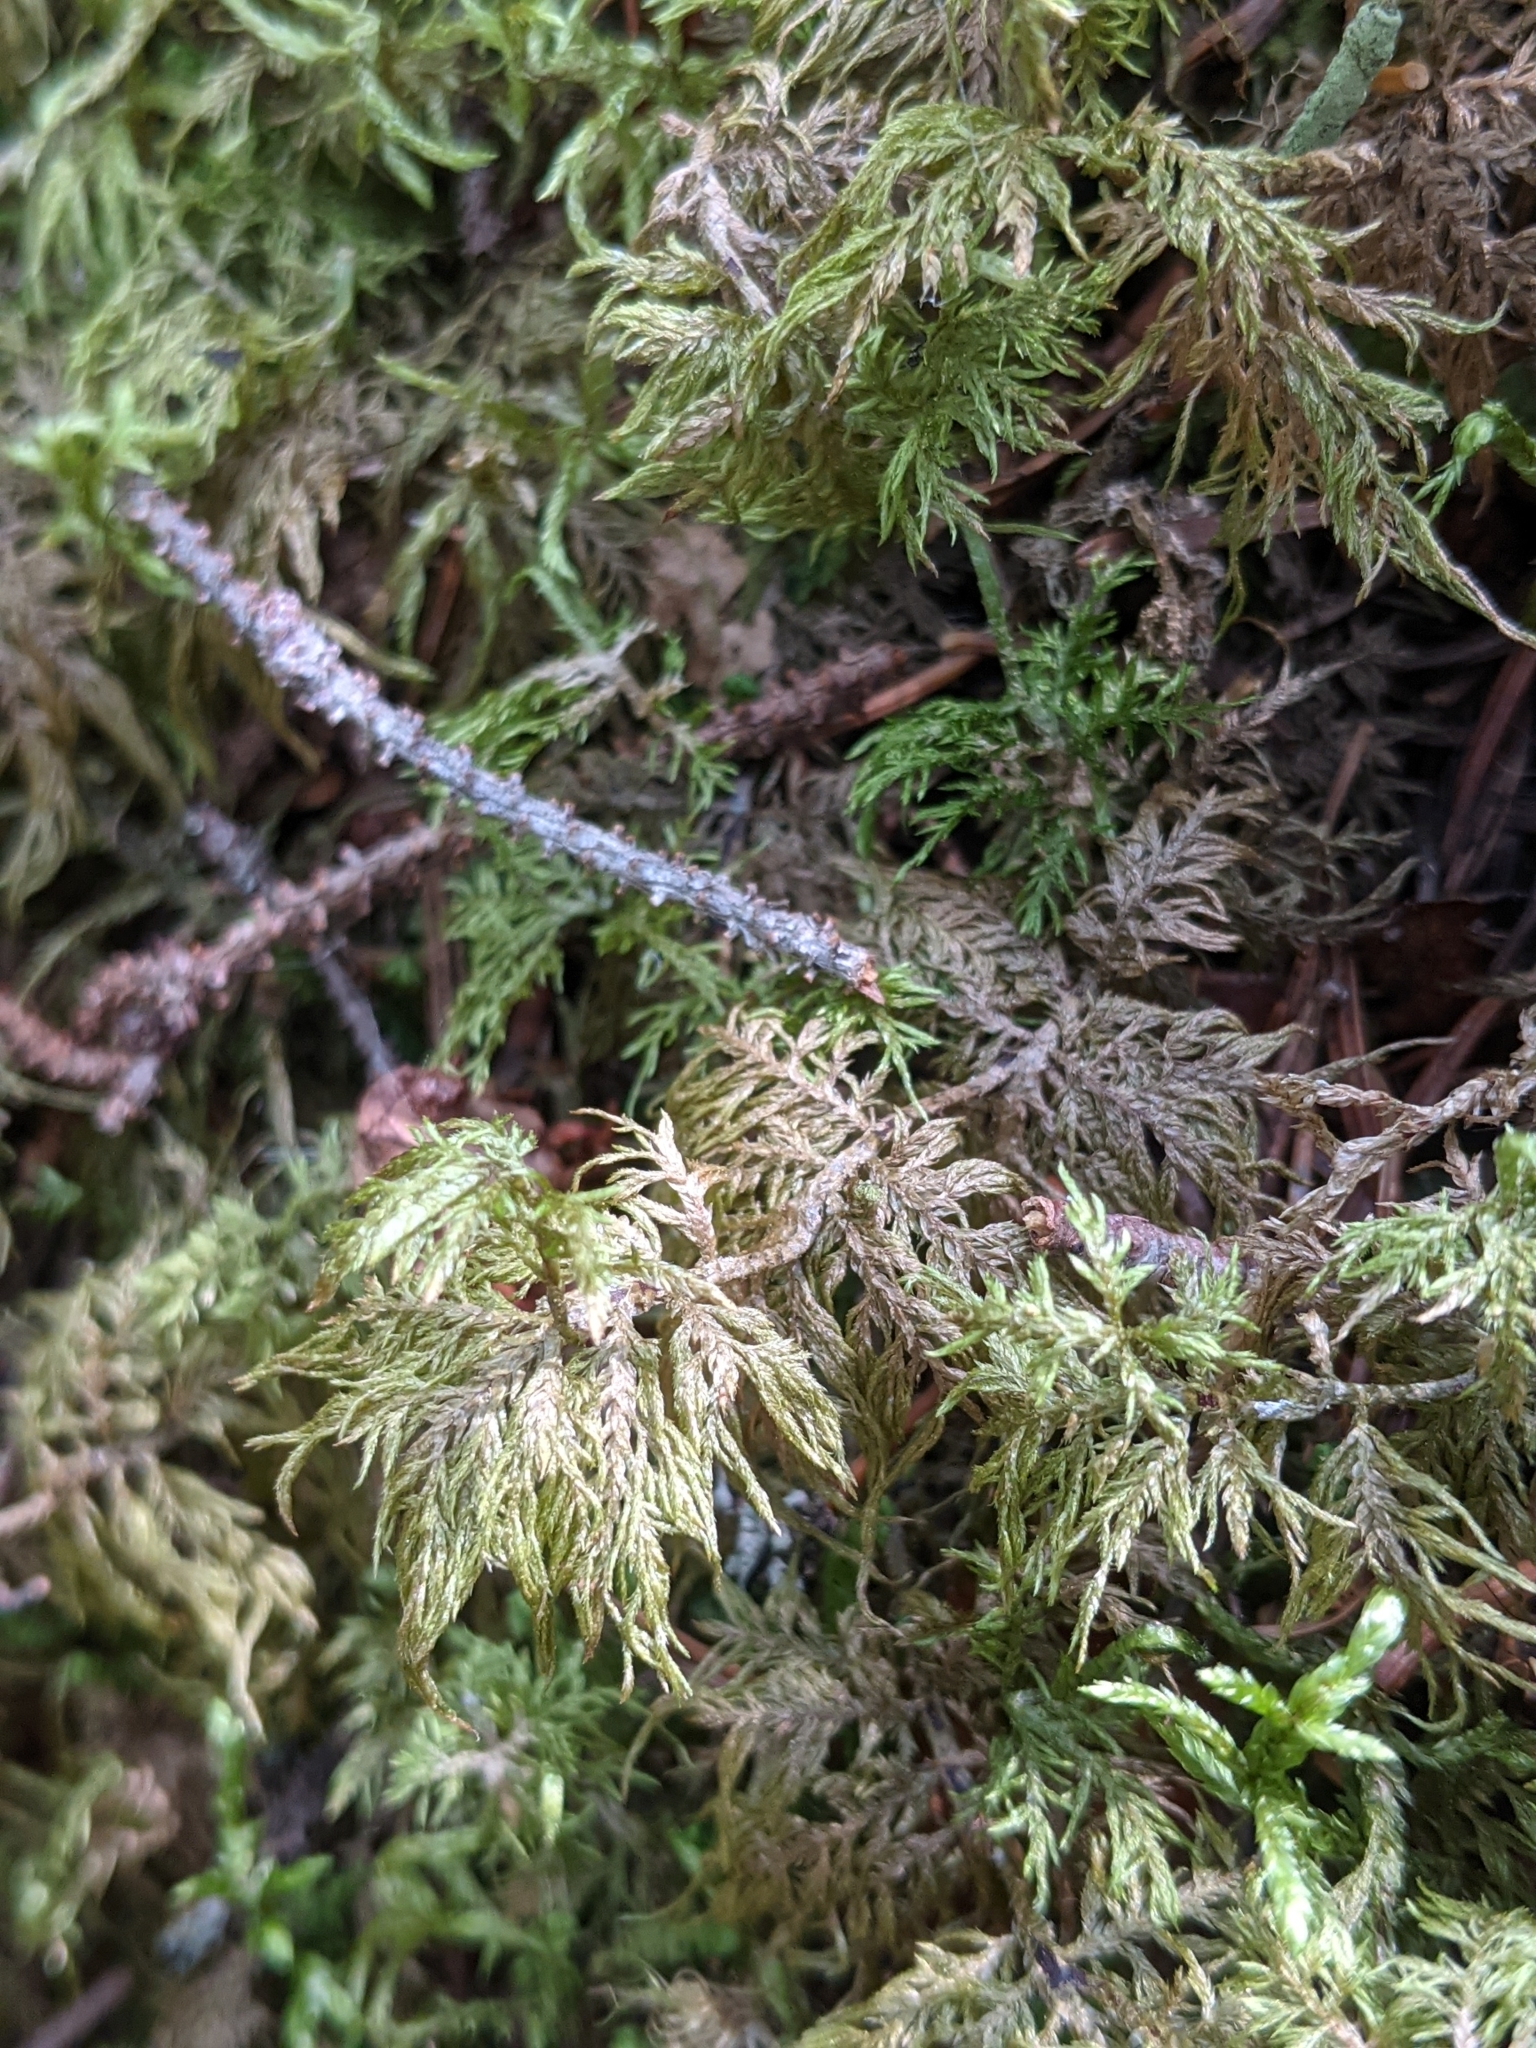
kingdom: Plantae
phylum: Bryophyta
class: Bryopsida
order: Hypnales
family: Hylocomiaceae
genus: Hylocomium
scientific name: Hylocomium splendens
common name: Stairstep moss
